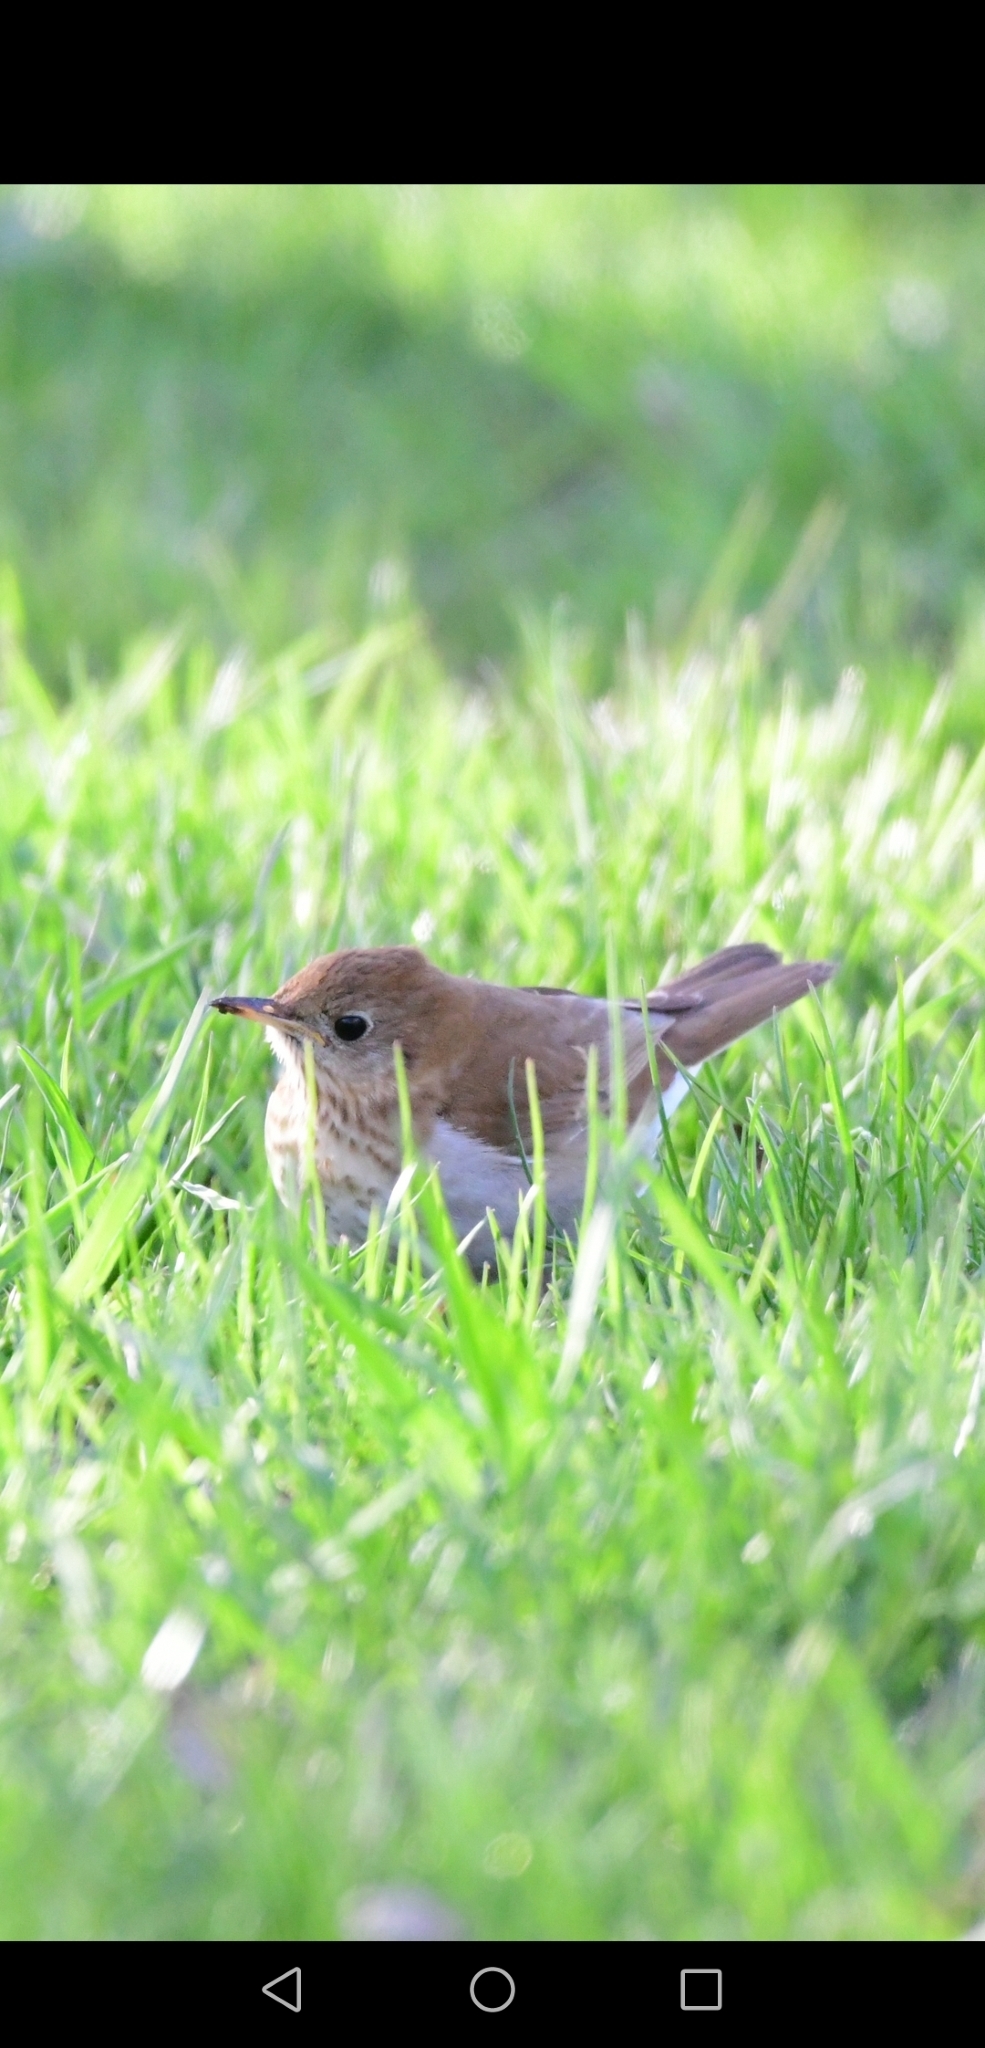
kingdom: Animalia
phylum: Chordata
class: Aves
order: Passeriformes
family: Turdidae
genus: Catharus
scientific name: Catharus fuscescens
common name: Veery
